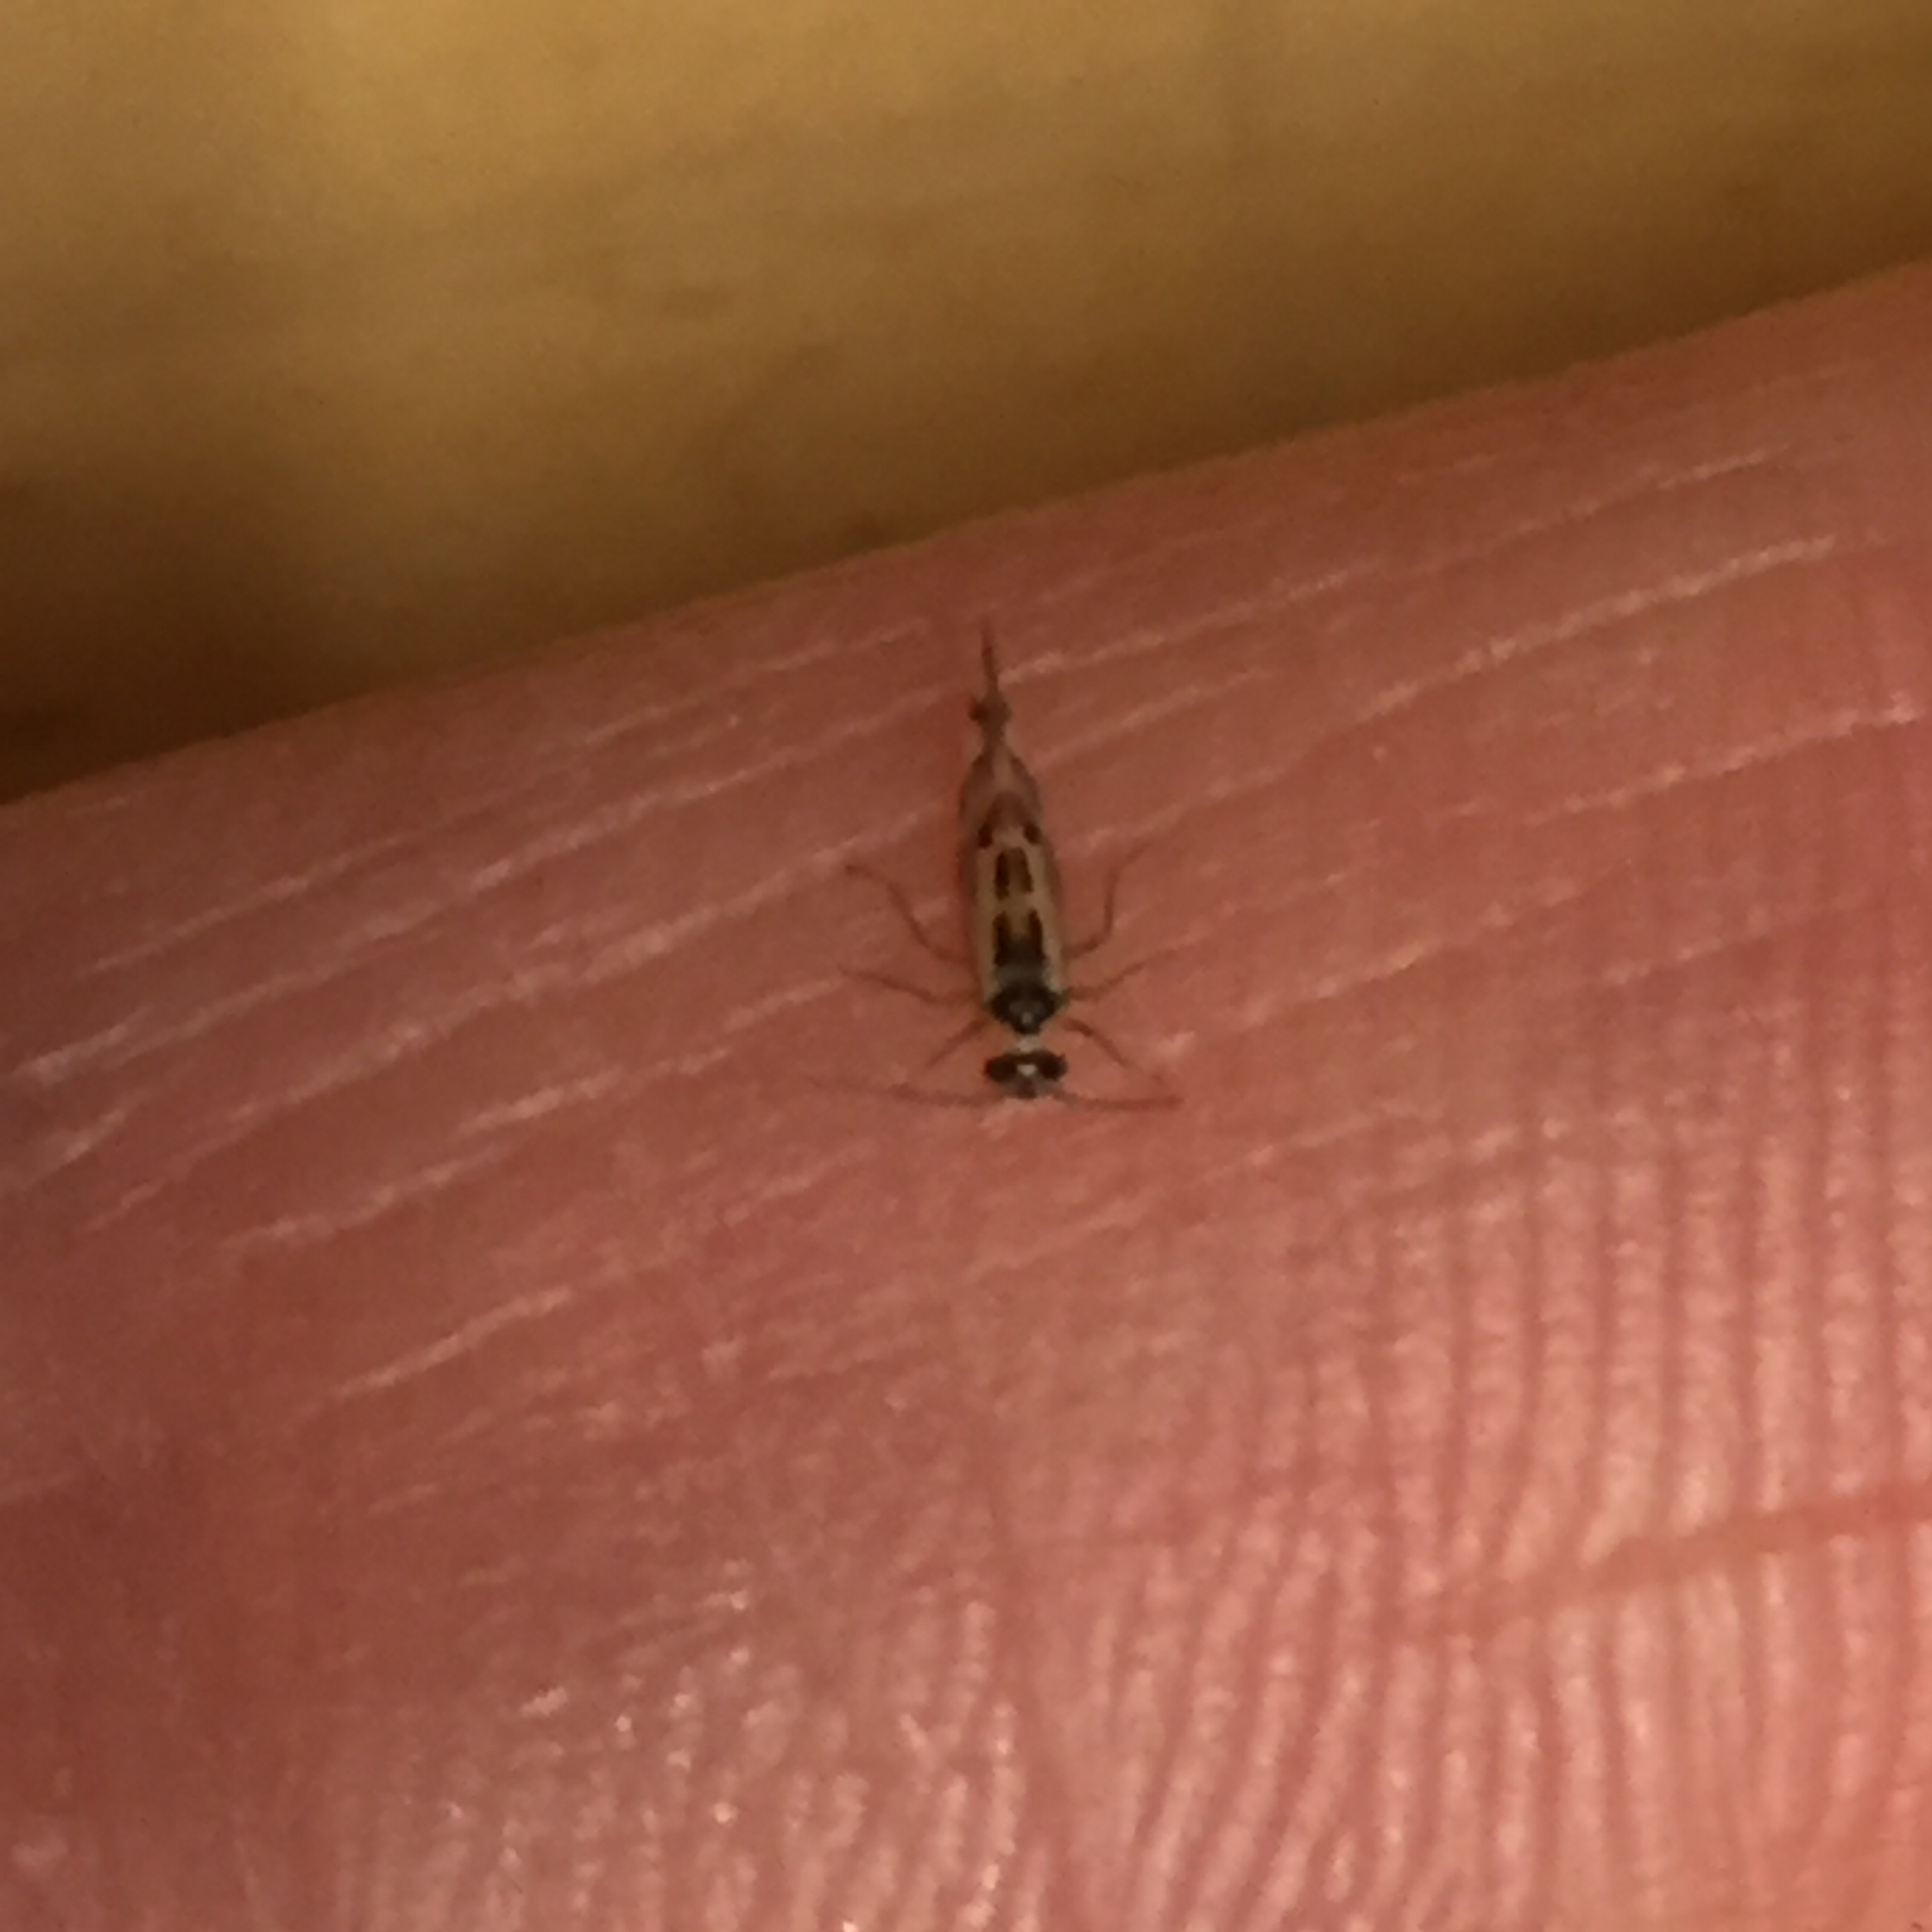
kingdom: Animalia
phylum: Arthropoda
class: Insecta
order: Psocodea
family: Stenopsocidae
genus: Graphopsocus
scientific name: Graphopsocus cruciatus
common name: Lizard bark louse
